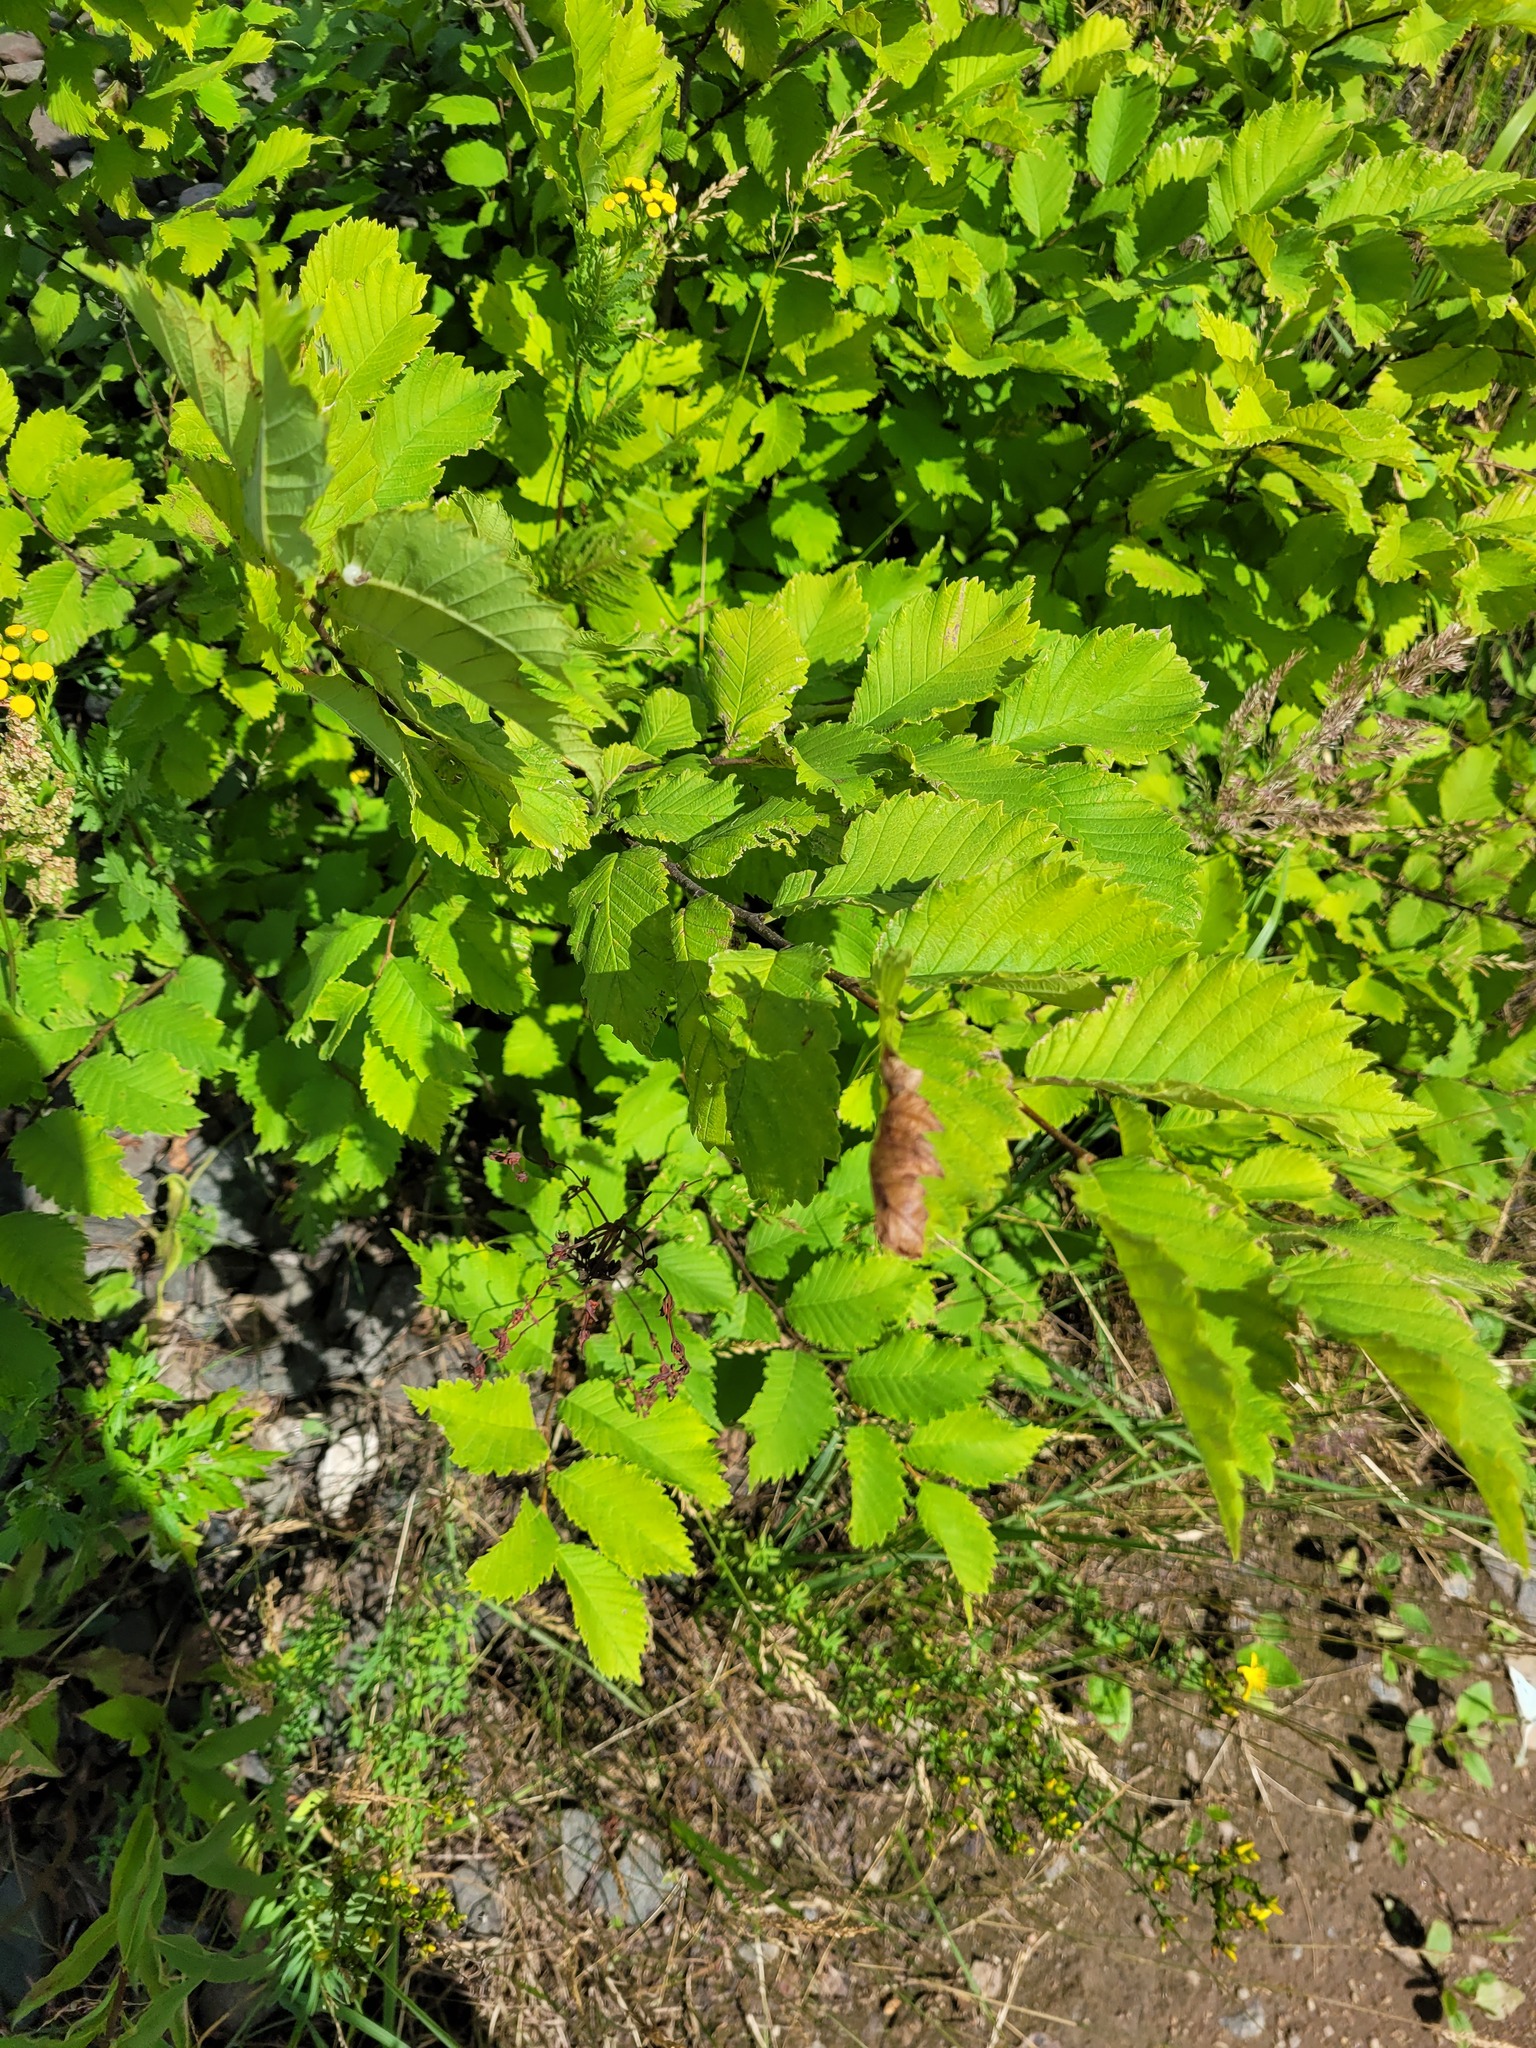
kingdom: Plantae
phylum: Tracheophyta
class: Magnoliopsida
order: Rosales
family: Ulmaceae
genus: Ulmus
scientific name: Ulmus laevis
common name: European white-elm
